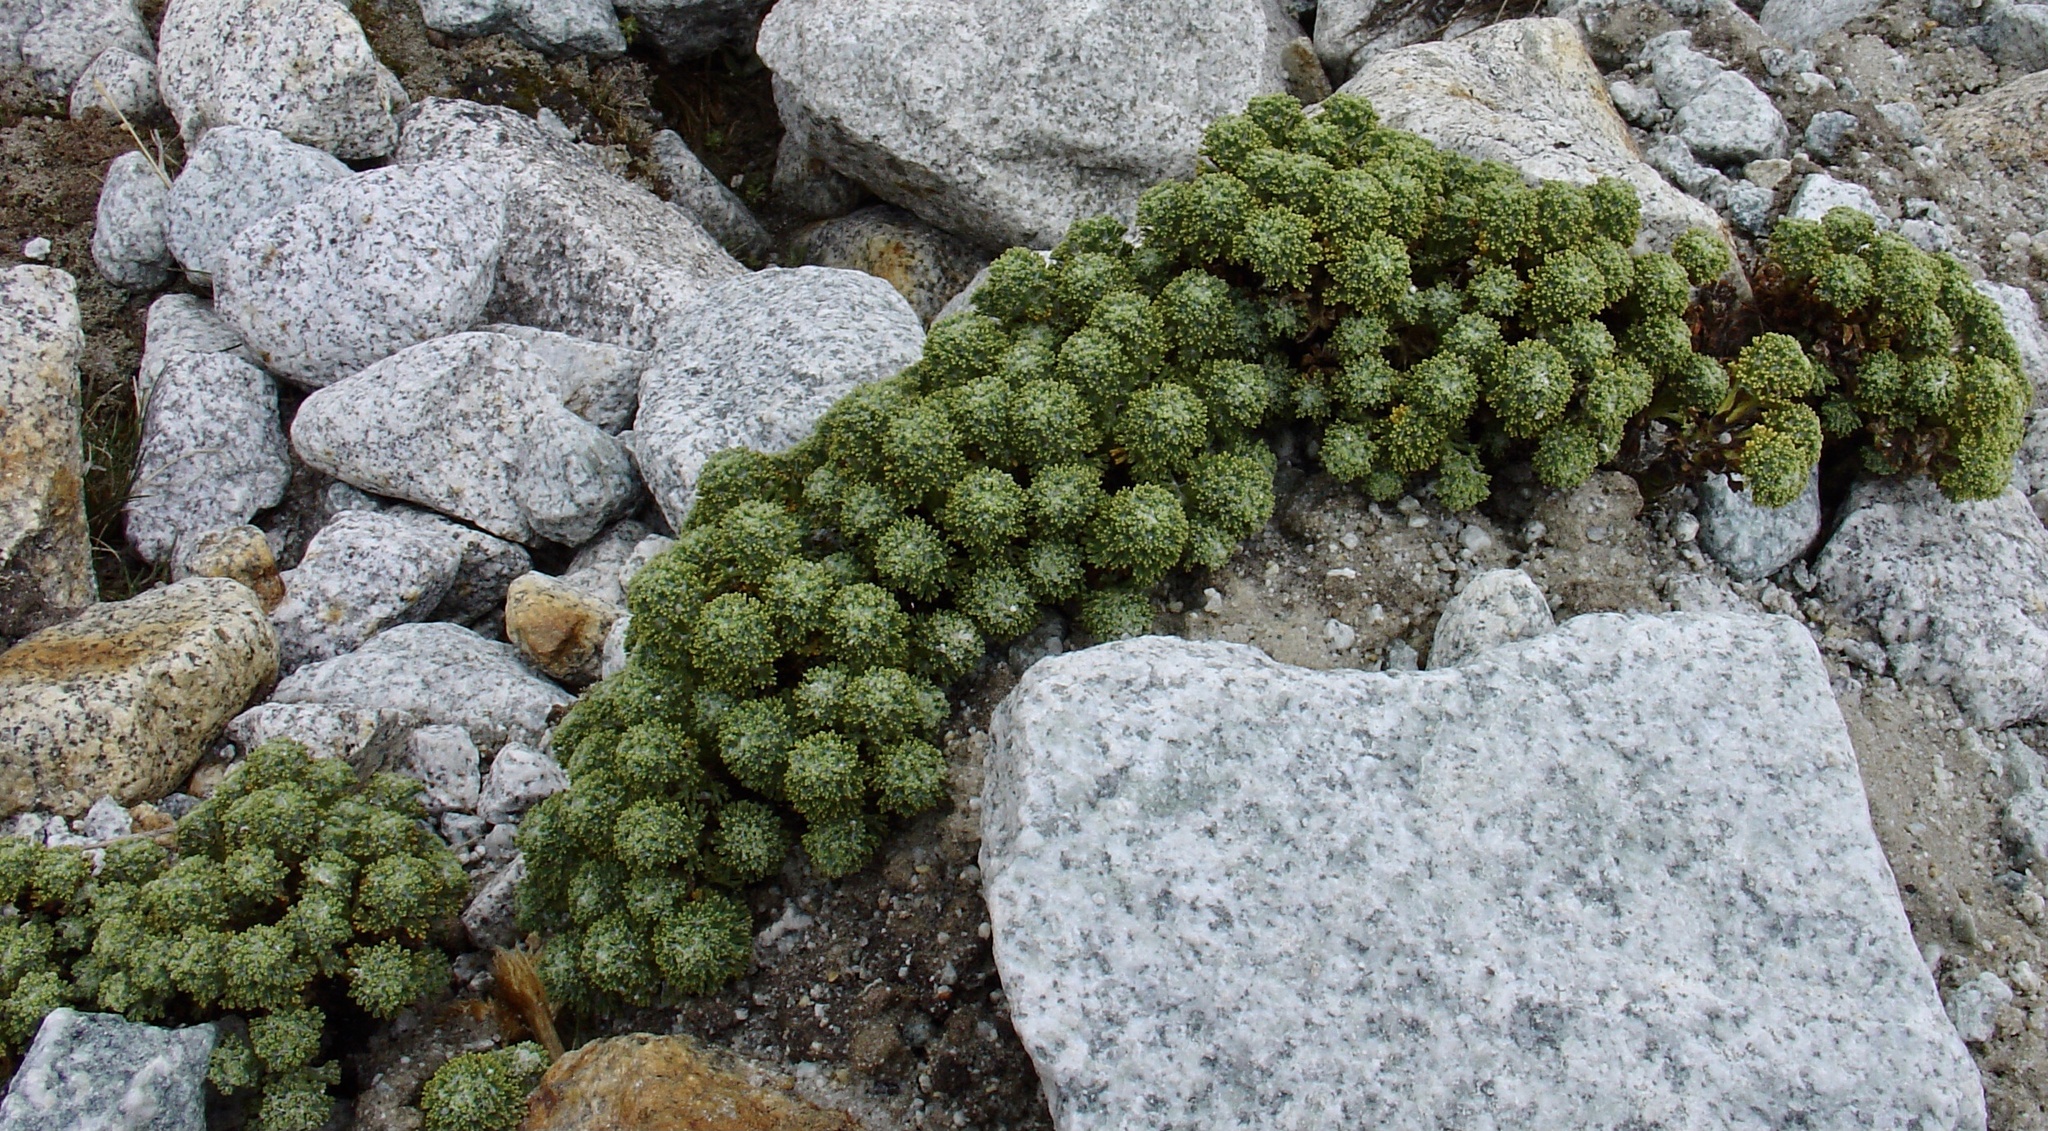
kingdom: Plantae
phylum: Tracheophyta
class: Magnoliopsida
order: Asterales
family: Asteraceae
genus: Werneria
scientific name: Werneria dactylophylla
